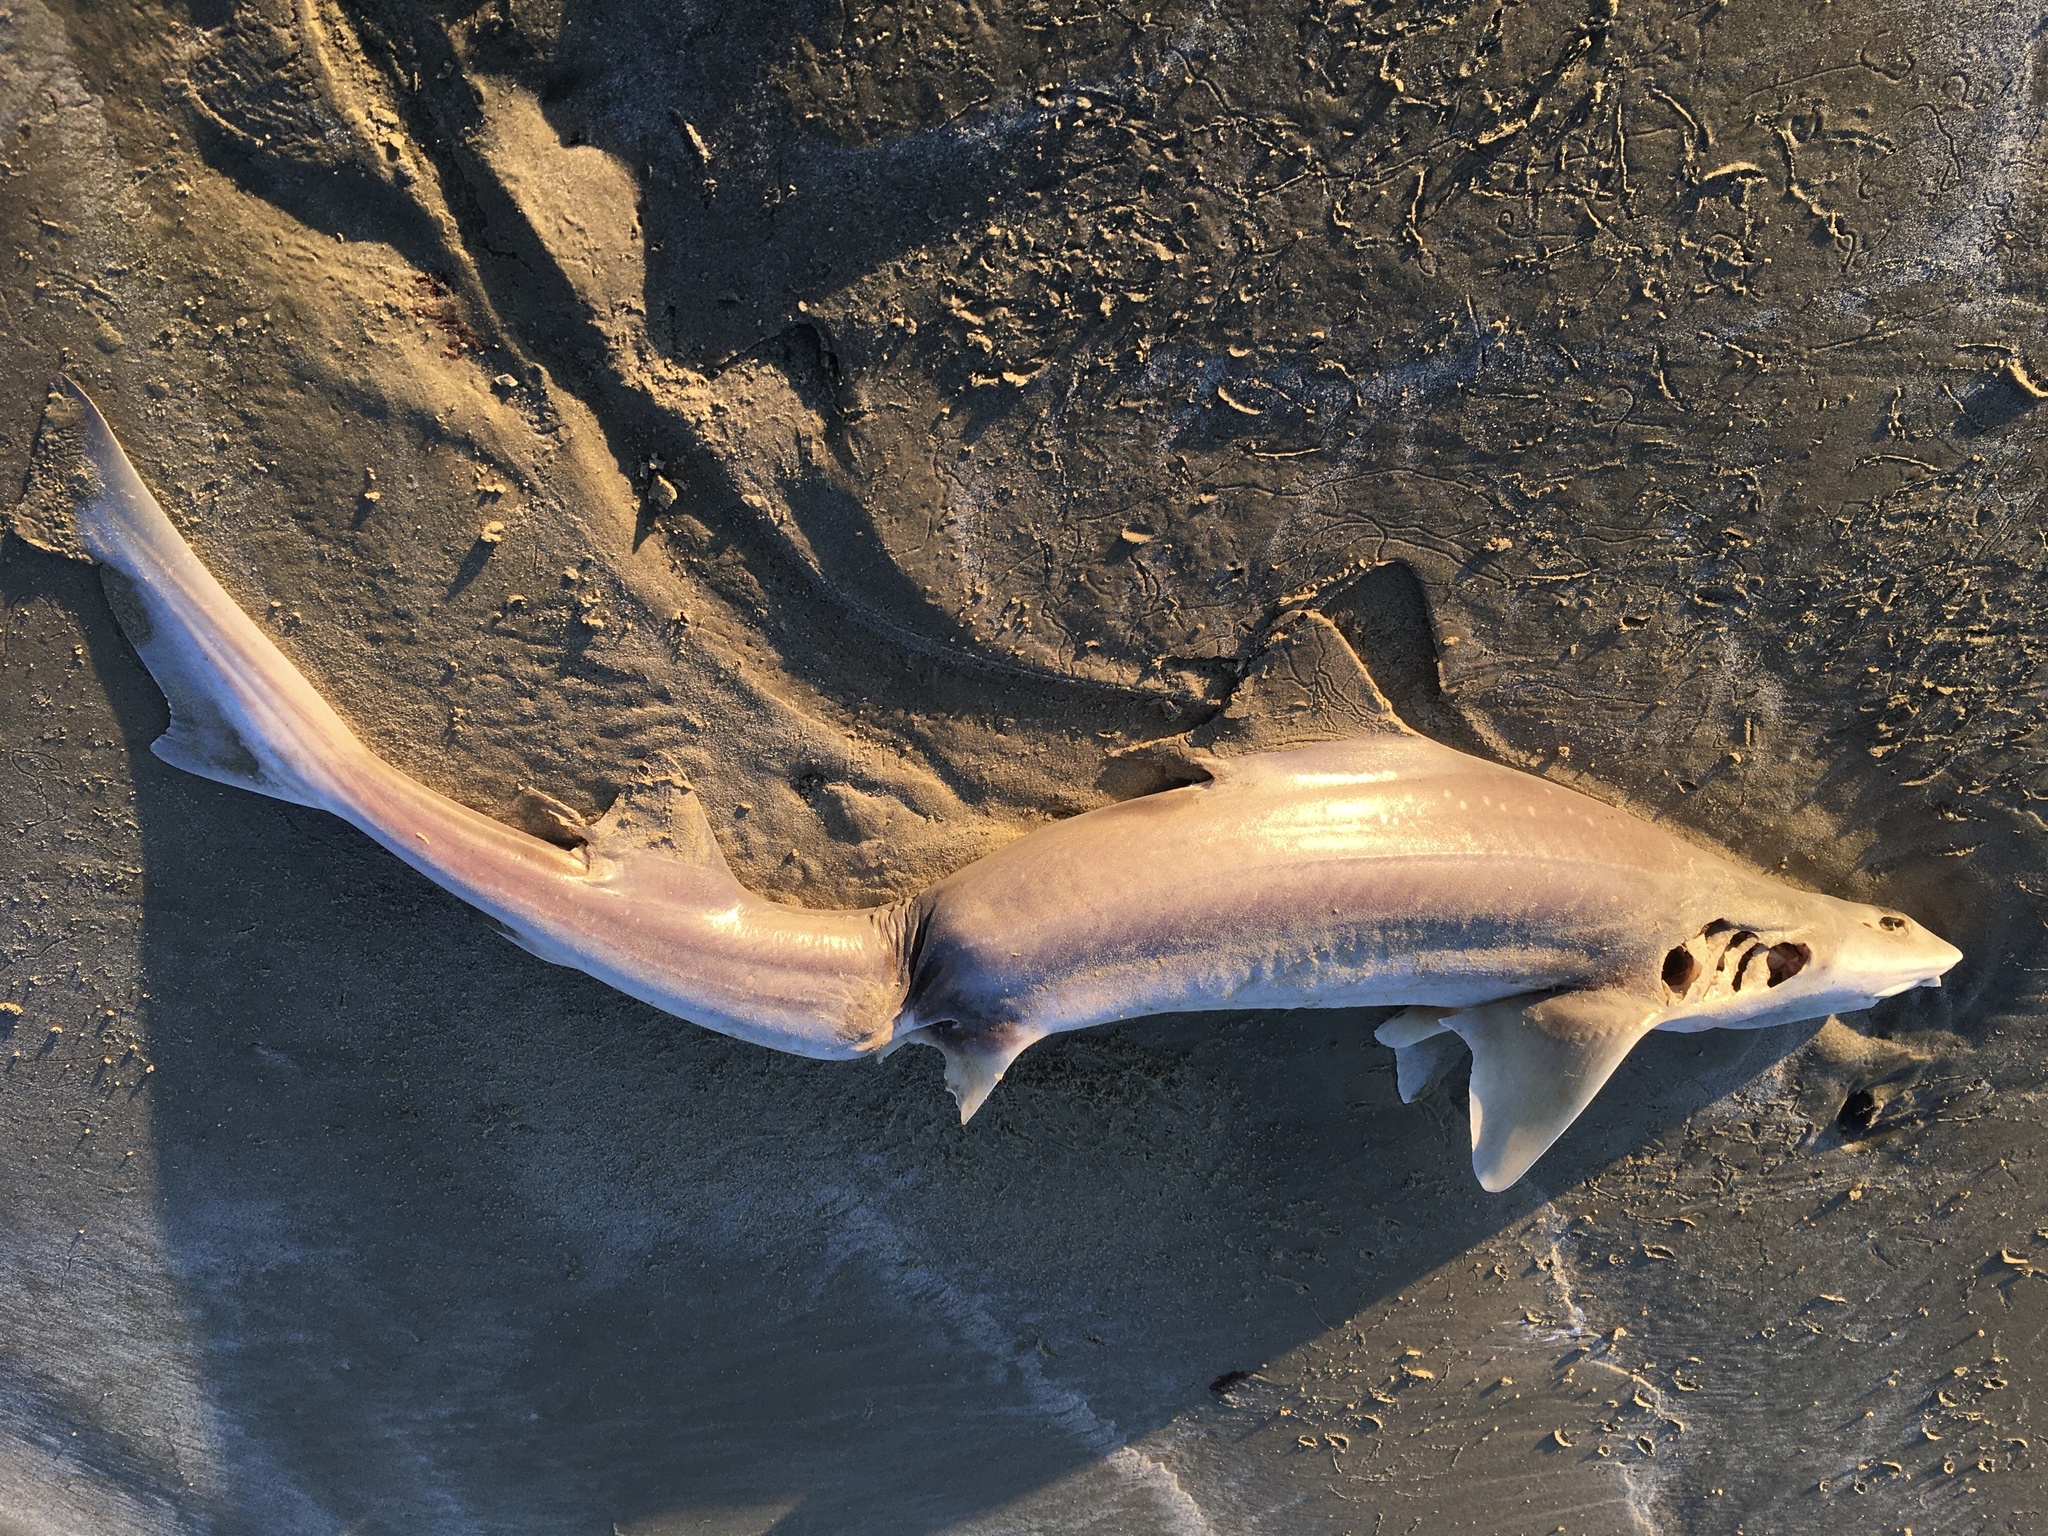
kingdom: Animalia
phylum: Chordata
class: Elasmobranchii
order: Carcharhiniformes
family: Triakidae
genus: Mustelus
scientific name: Mustelus lenticulatus
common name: Gummy shark
